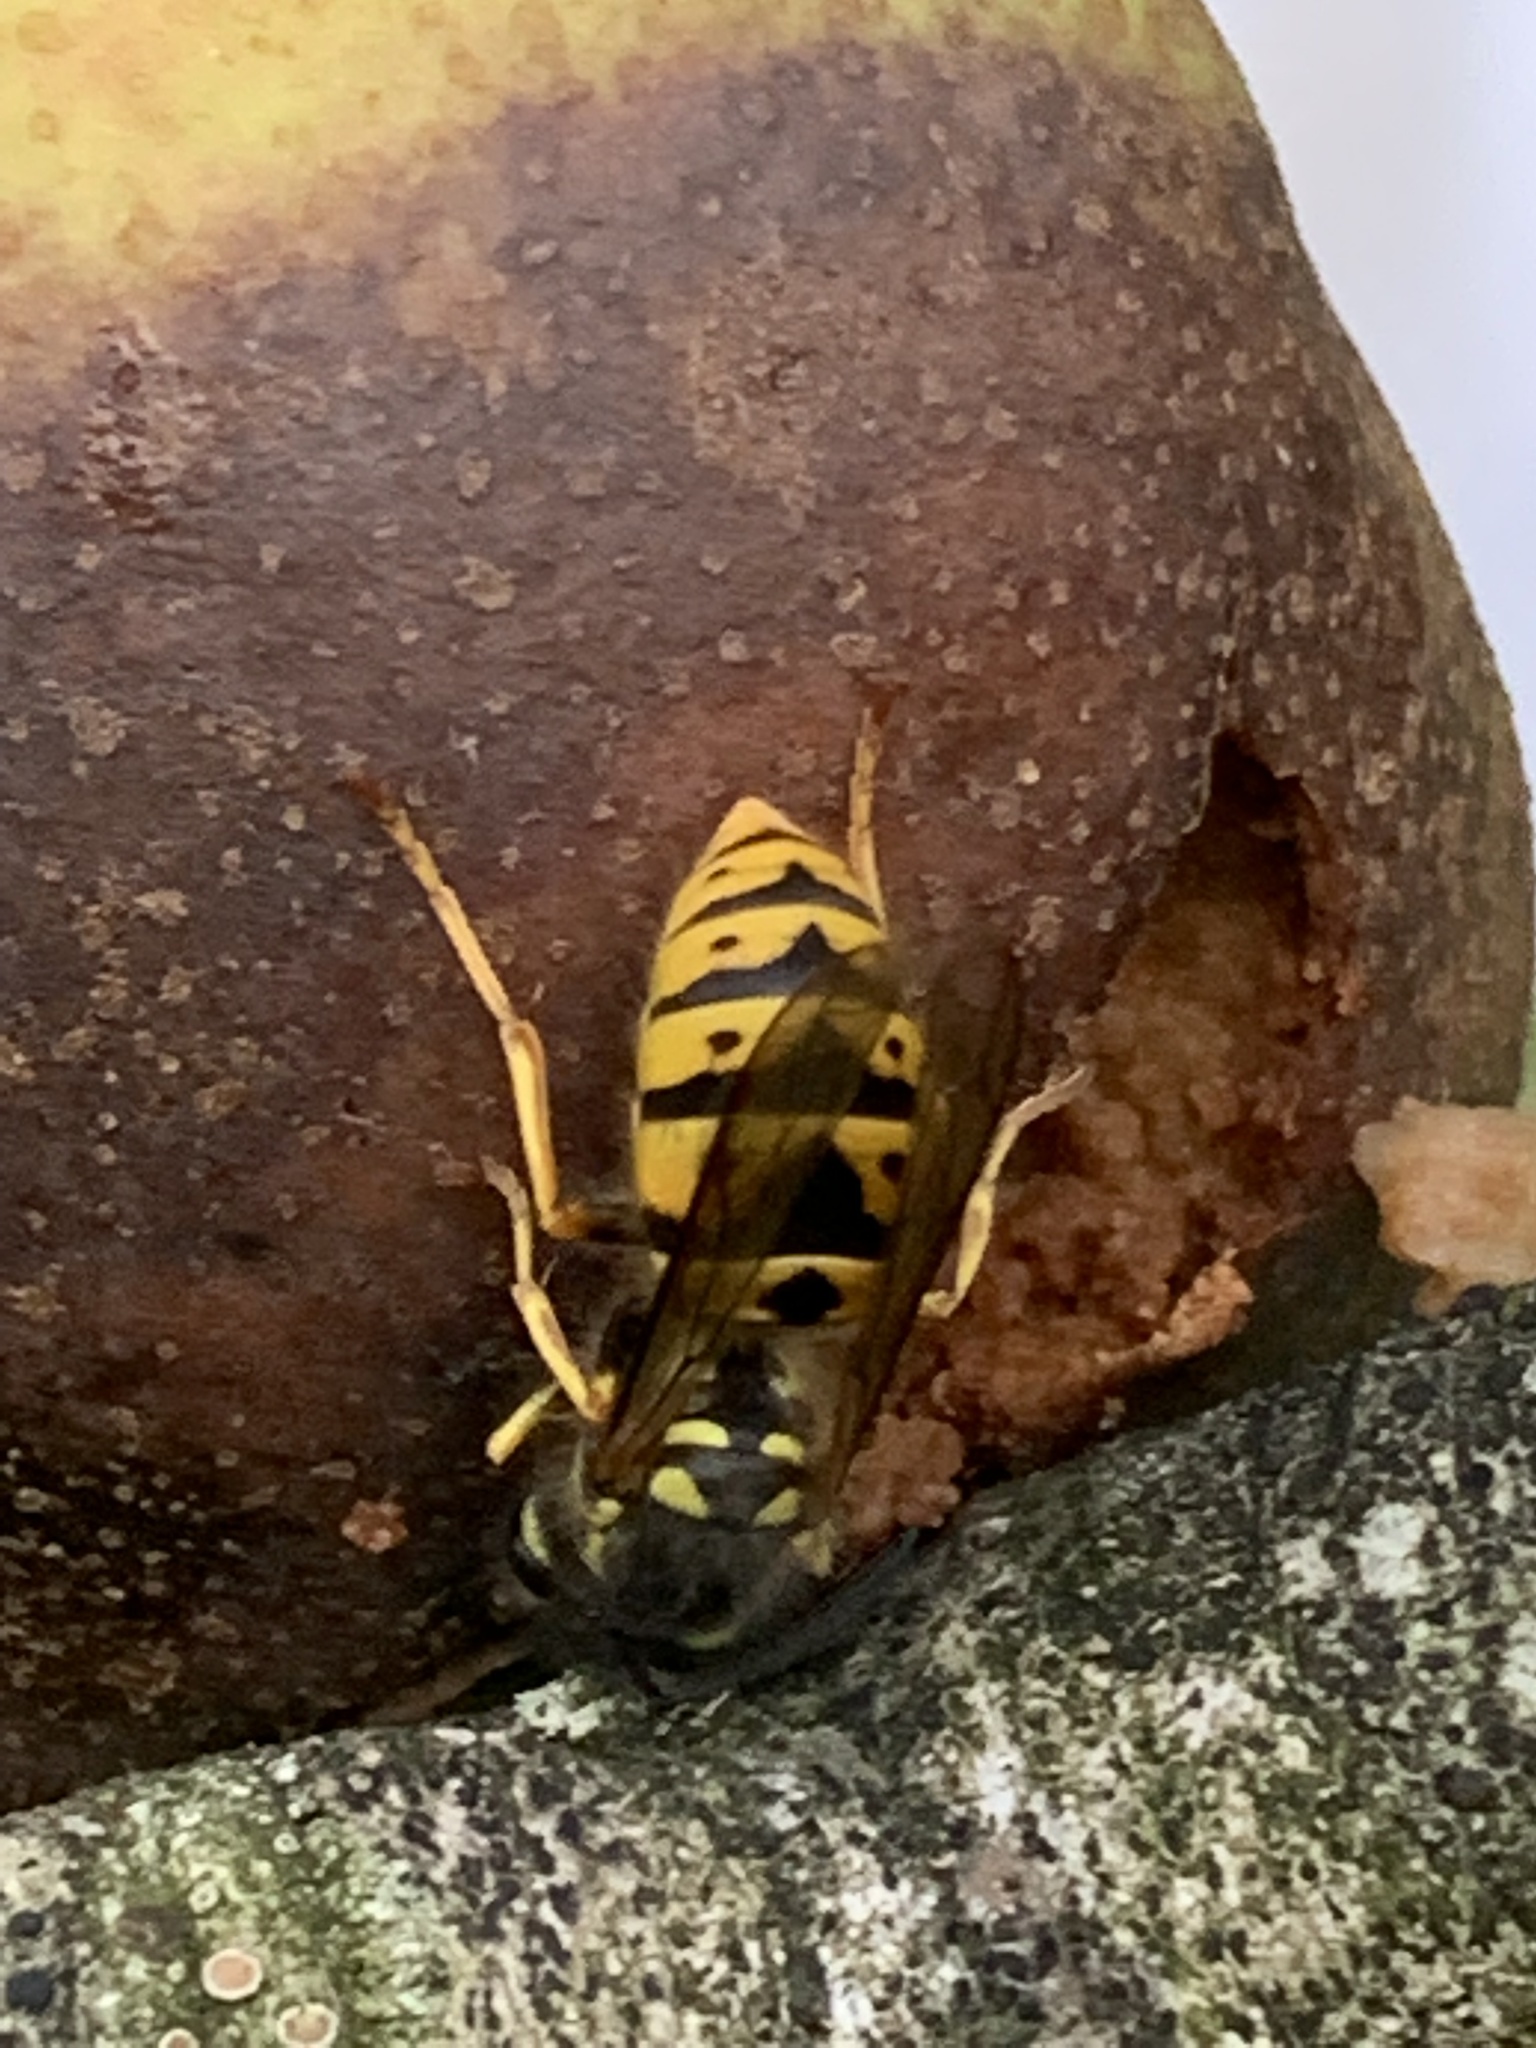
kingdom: Animalia
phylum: Arthropoda
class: Insecta
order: Hymenoptera
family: Vespidae
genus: Vespula
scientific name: Vespula germanica
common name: German wasp
